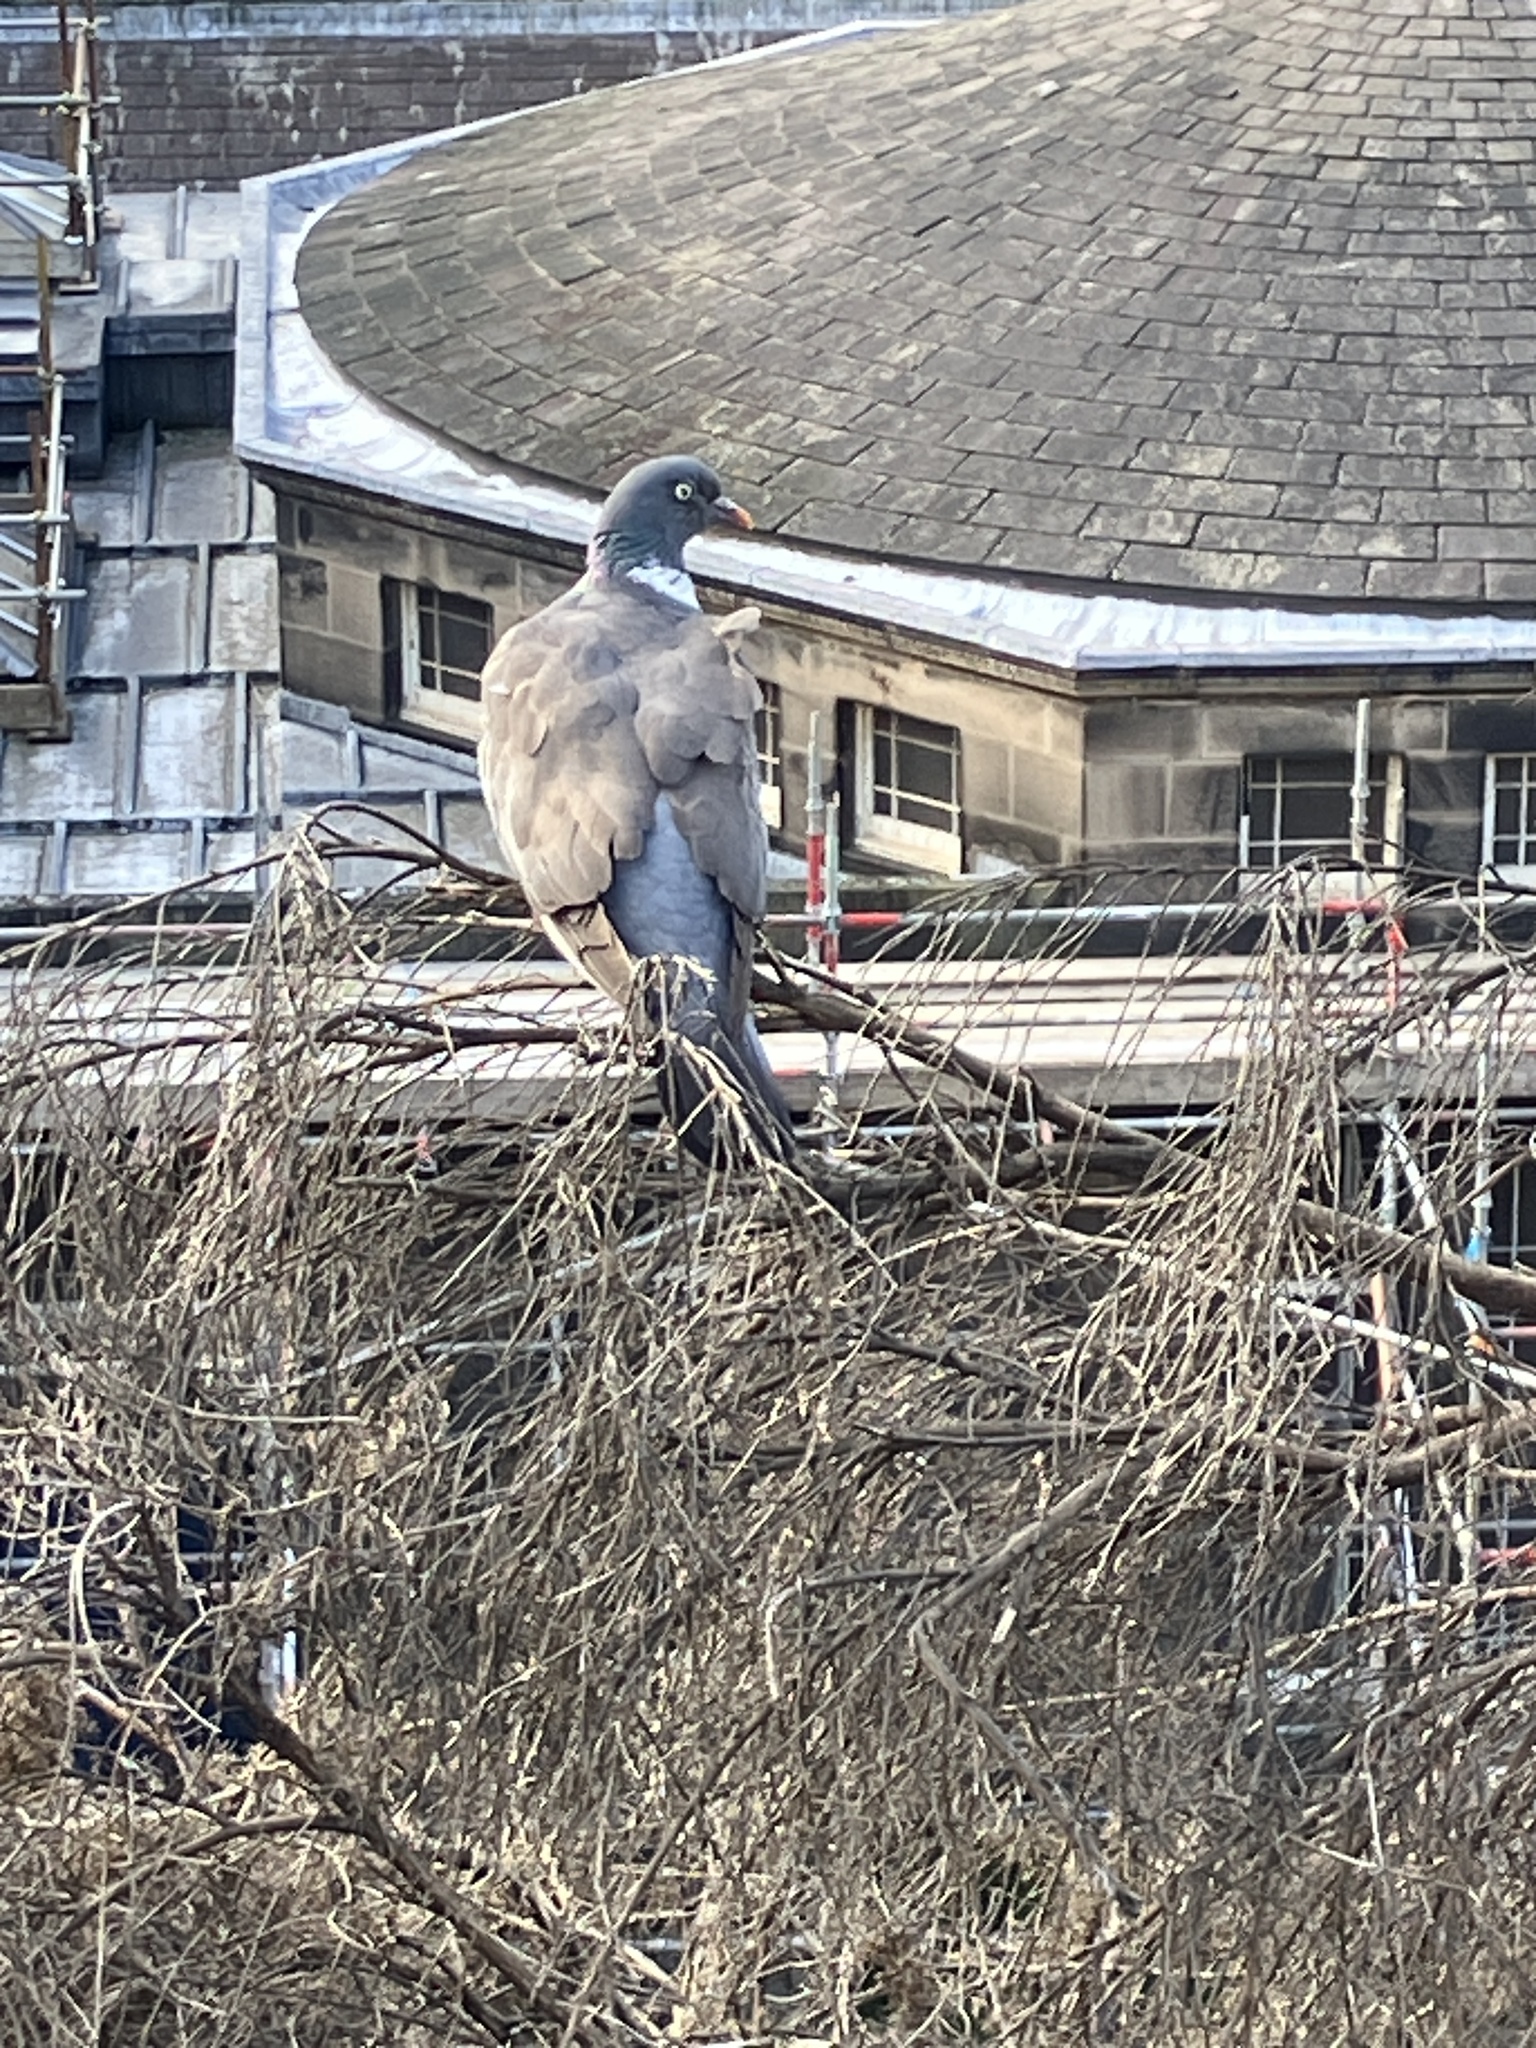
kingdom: Animalia
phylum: Chordata
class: Aves
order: Columbiformes
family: Columbidae
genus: Columba
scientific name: Columba palumbus
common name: Common wood pigeon
